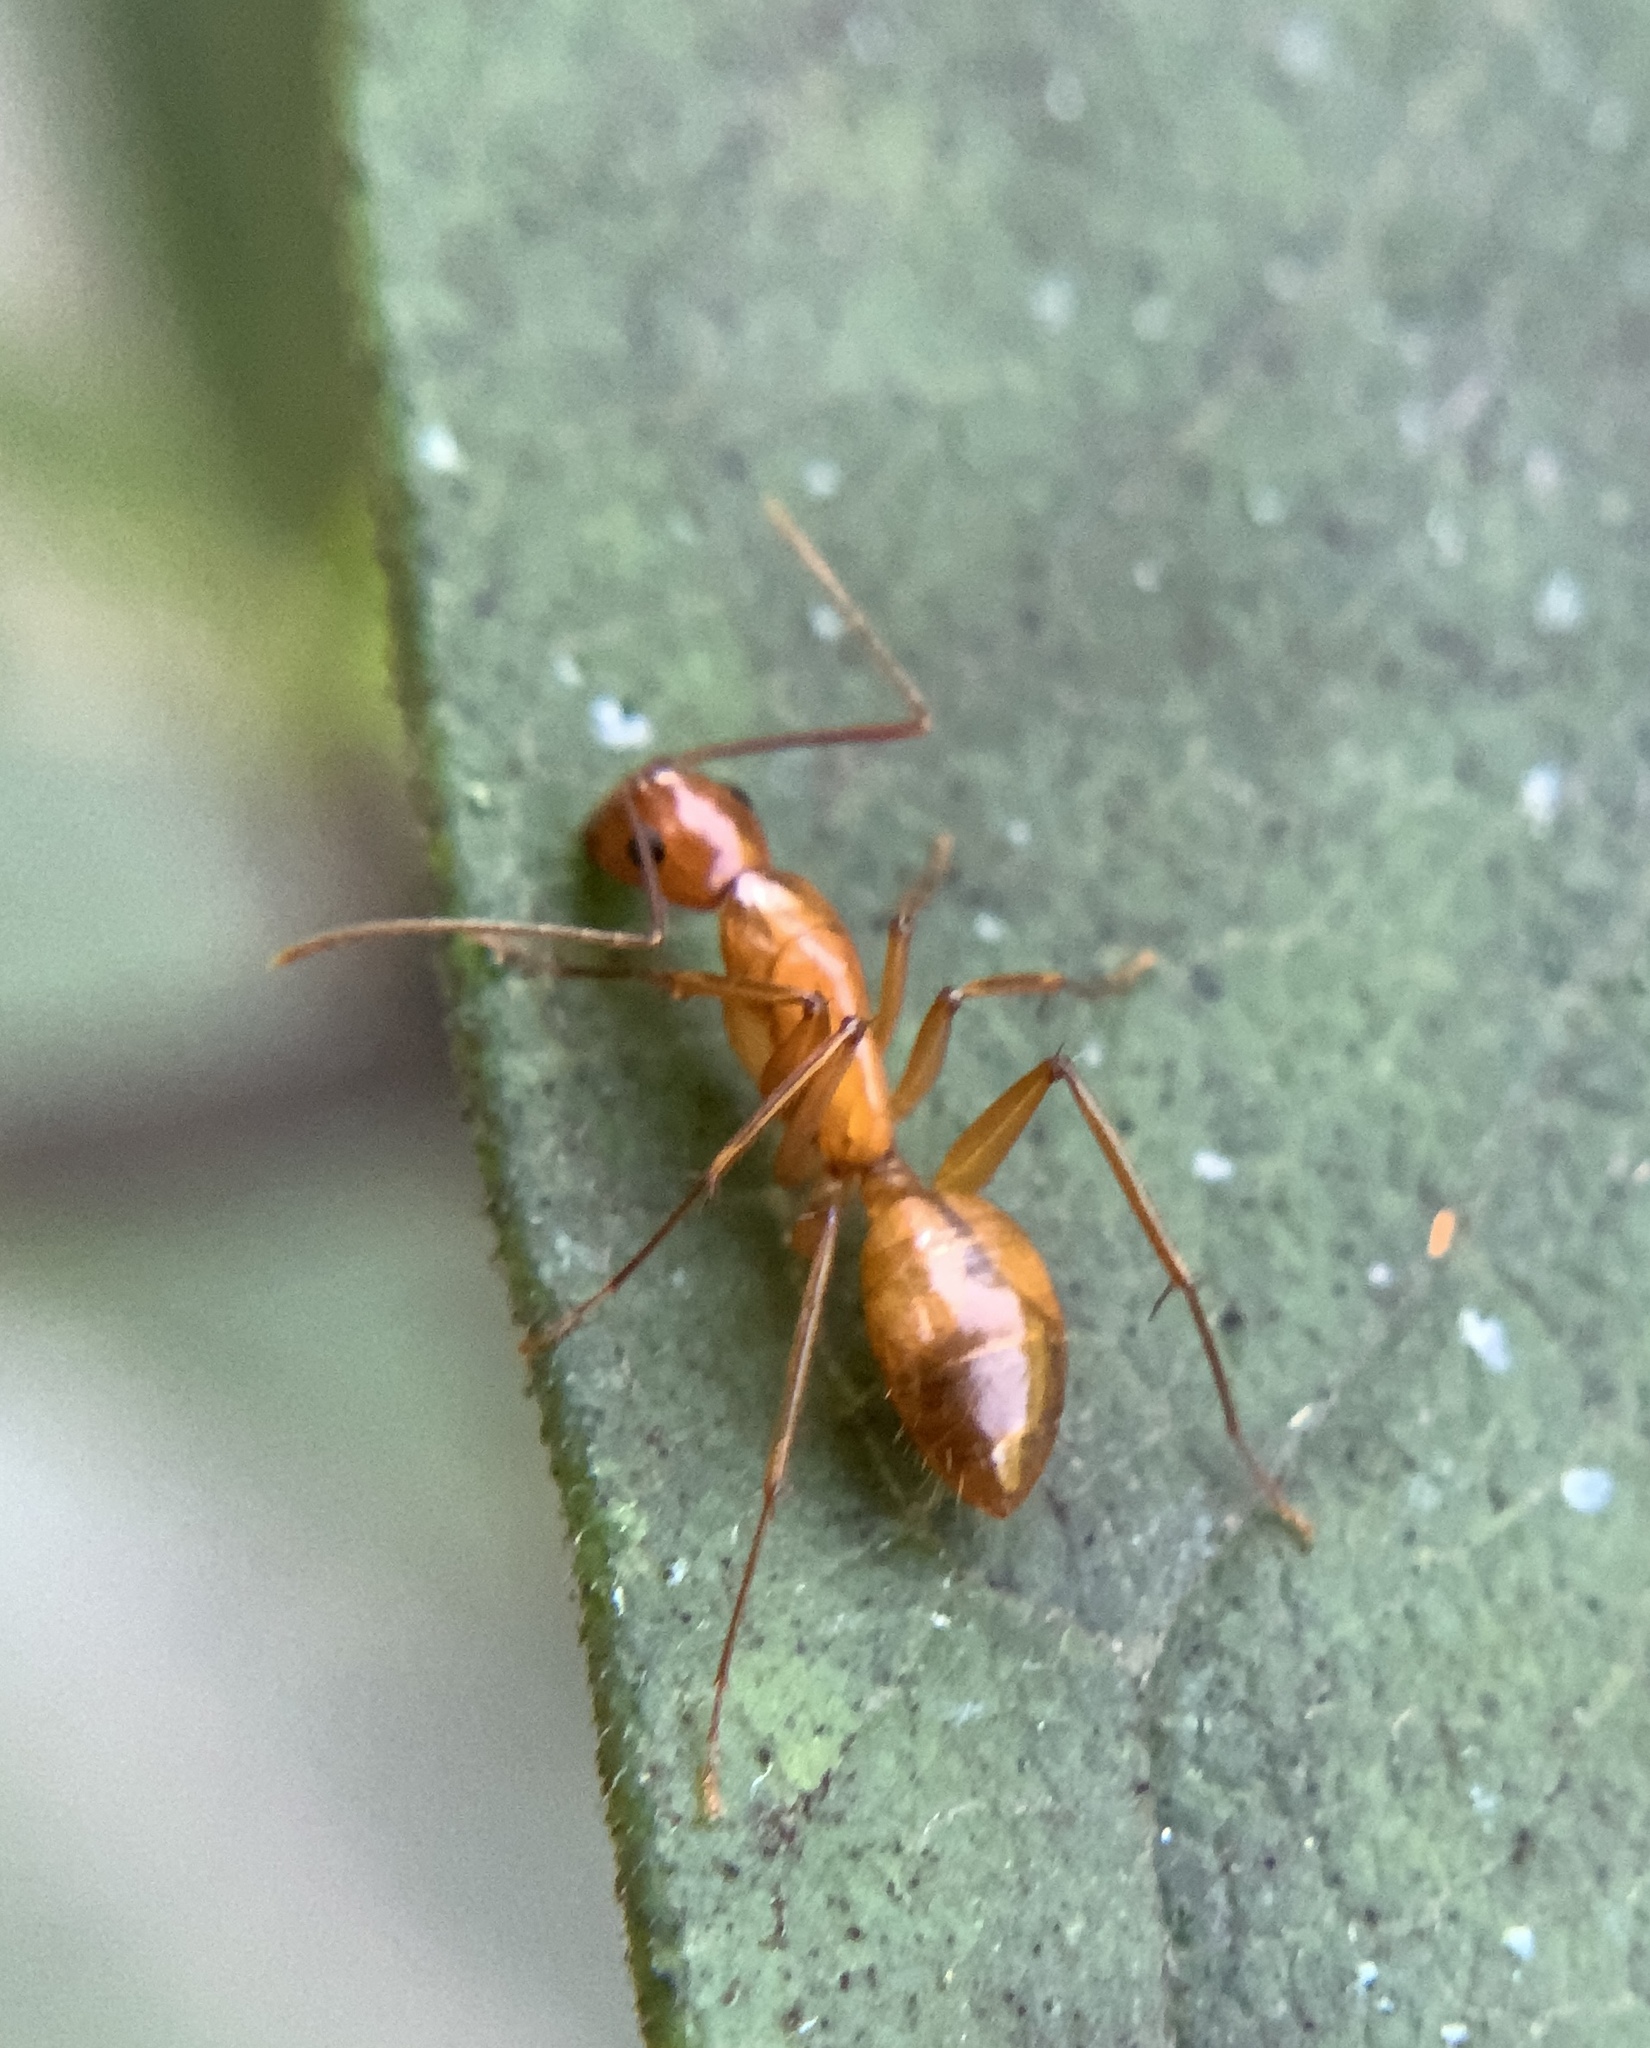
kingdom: Animalia
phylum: Arthropoda
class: Insecta
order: Hymenoptera
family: Formicidae
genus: Camponotus
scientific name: Camponotus castaneus
